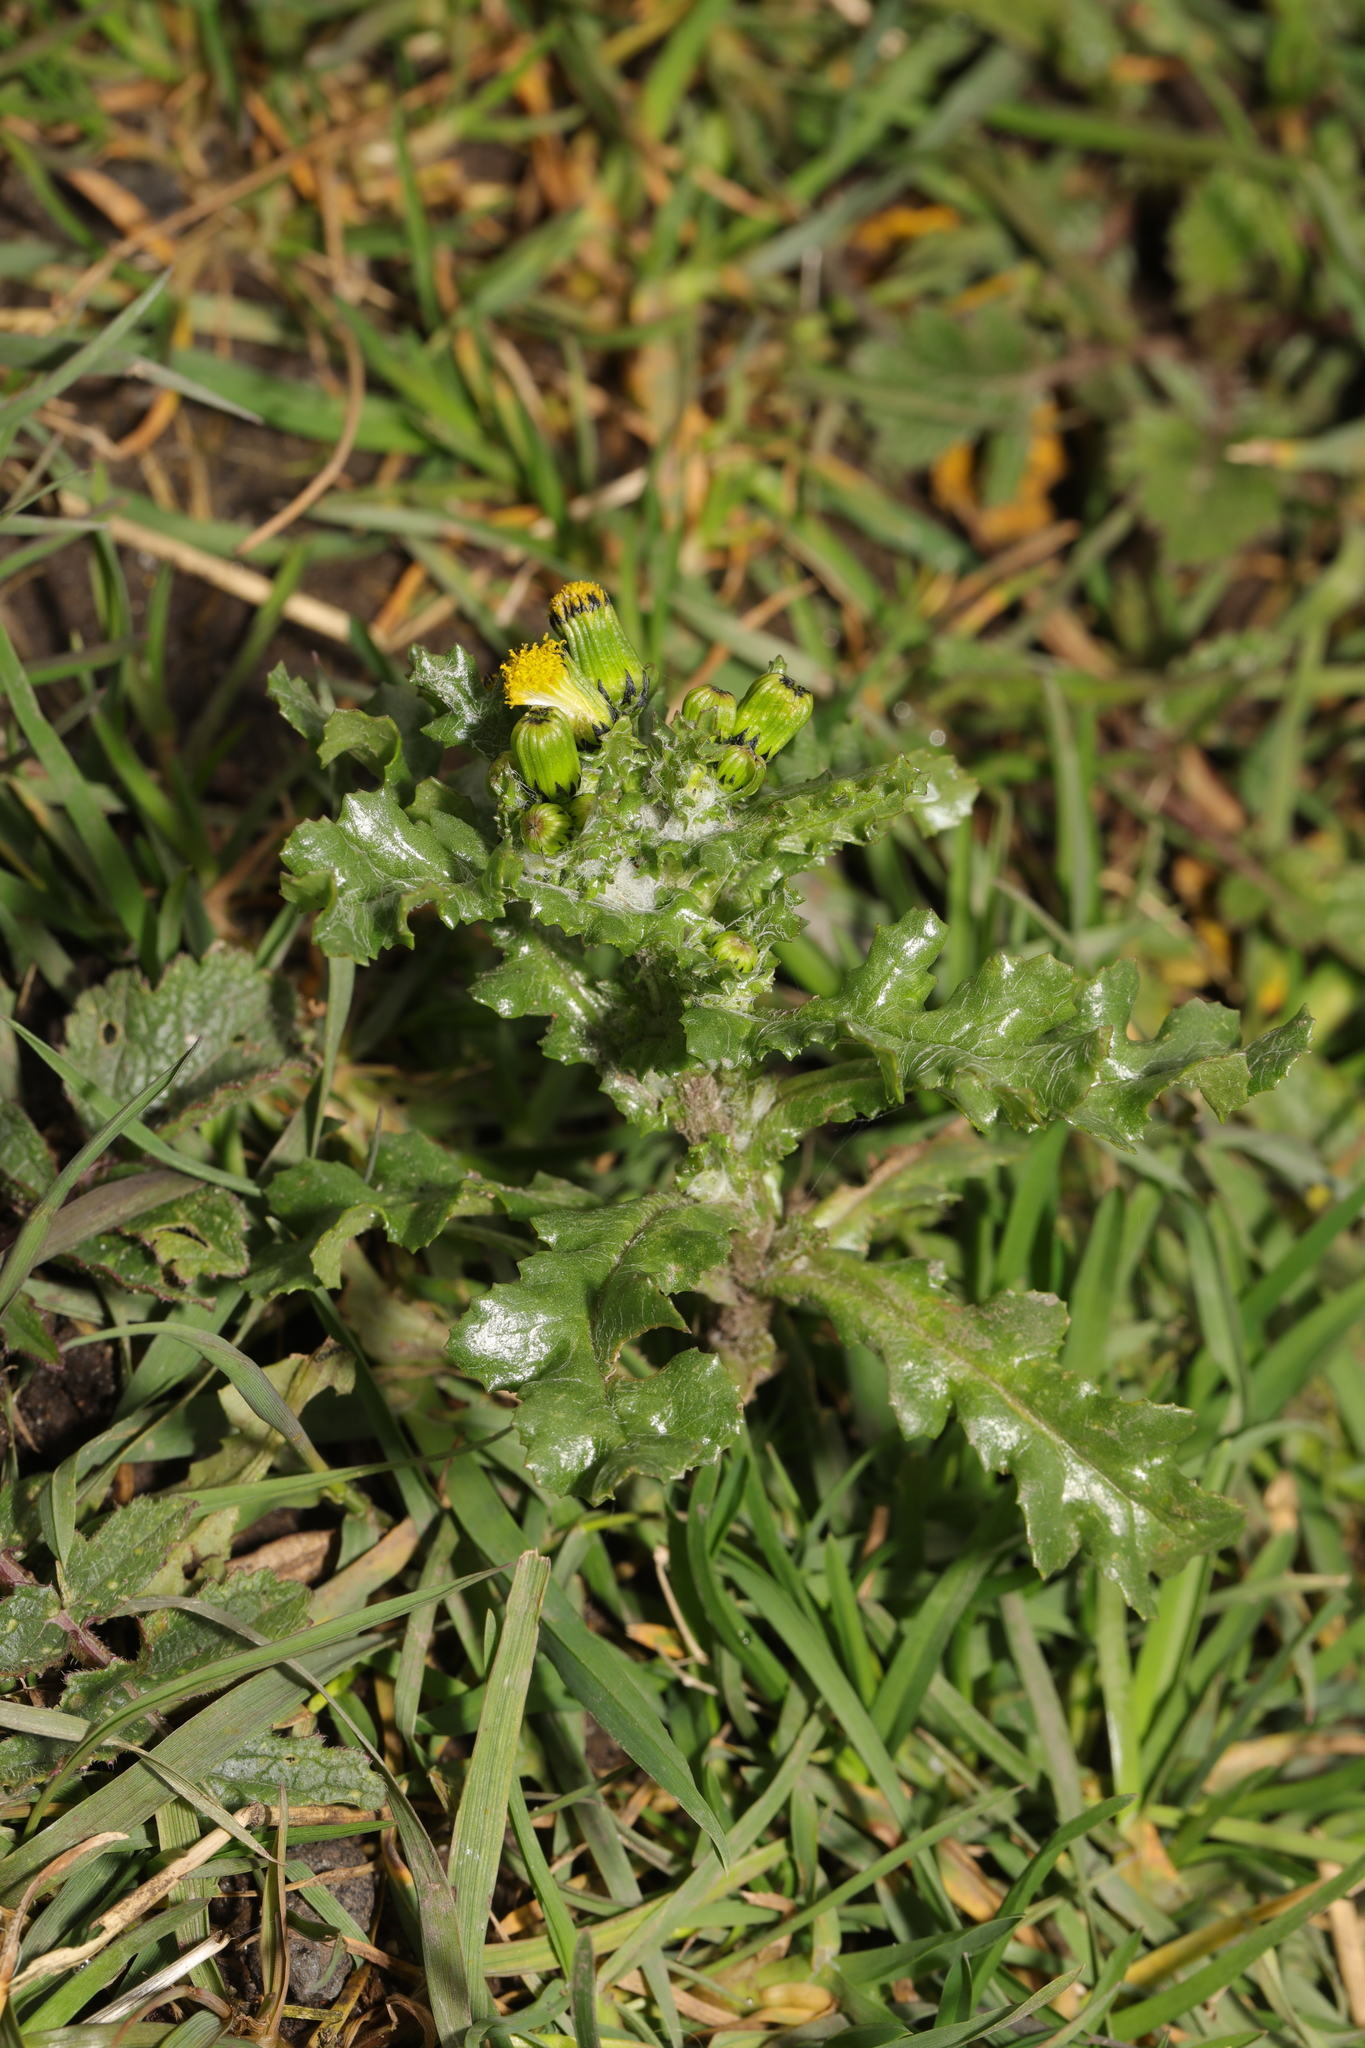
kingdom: Plantae
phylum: Tracheophyta
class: Magnoliopsida
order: Asterales
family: Asteraceae
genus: Senecio
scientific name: Senecio vulgaris
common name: Old-man-in-the-spring
